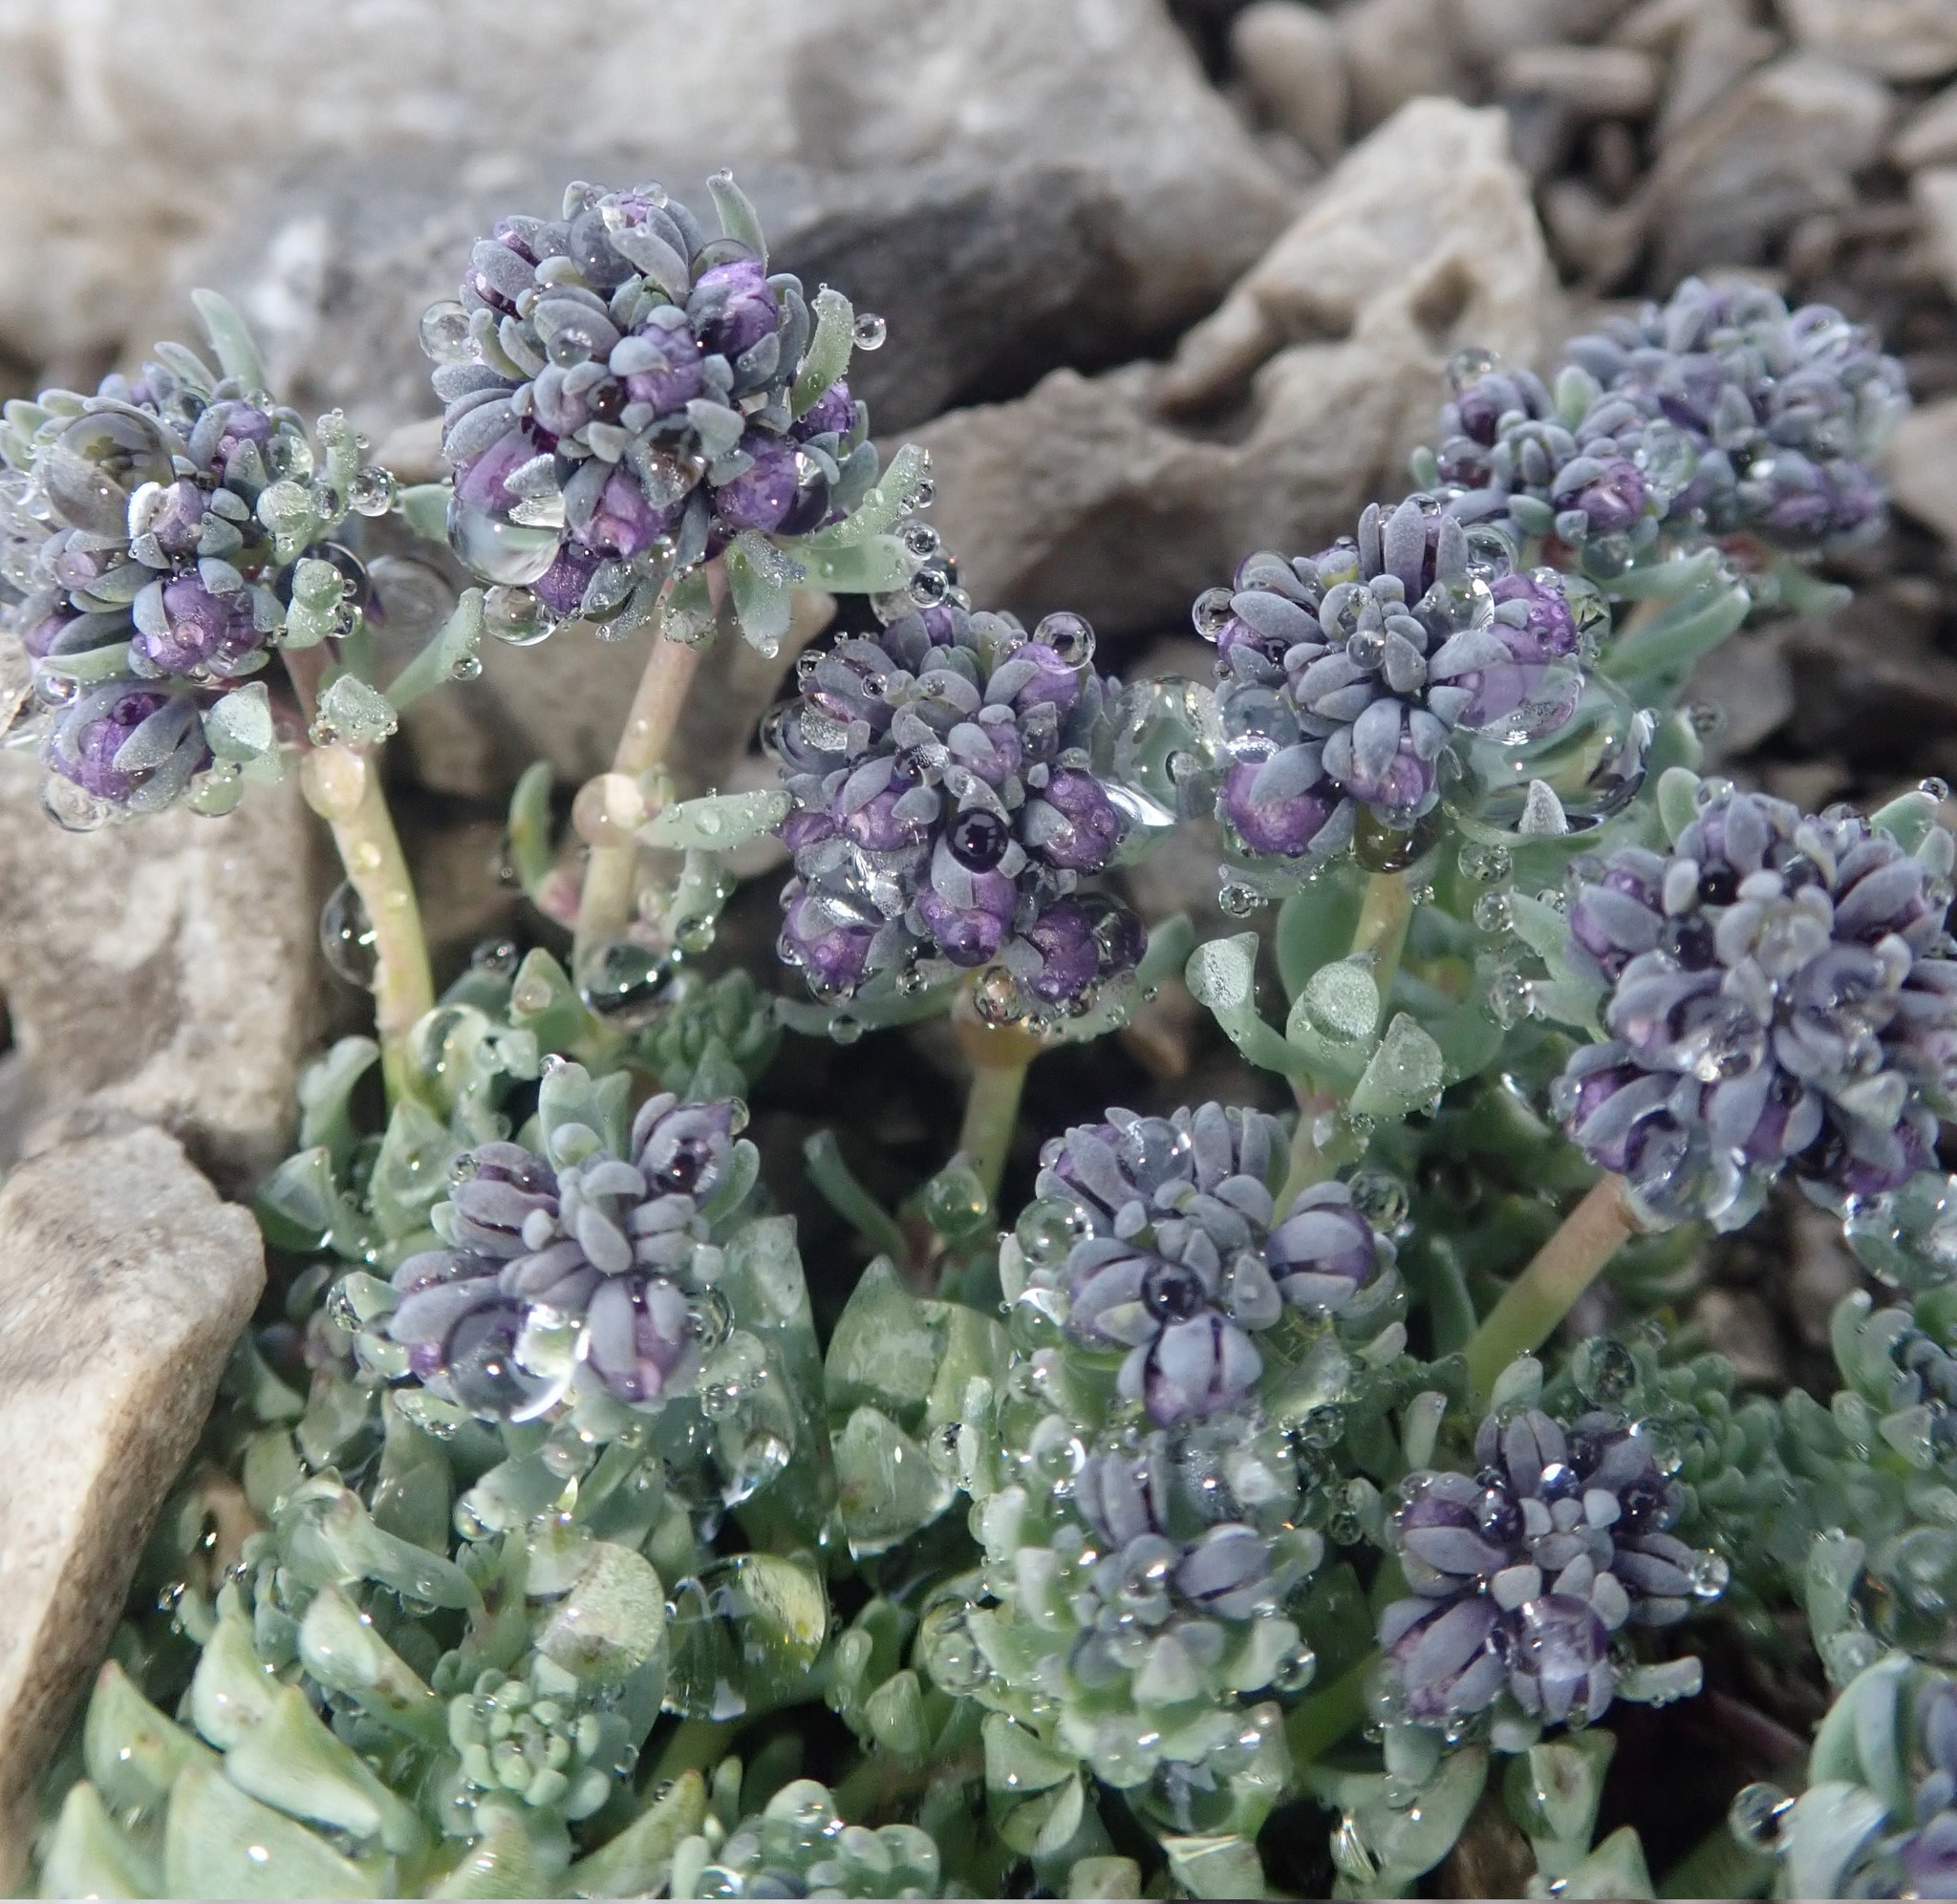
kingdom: Plantae
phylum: Tracheophyta
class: Magnoliopsida
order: Lamiales
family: Plantaginaceae
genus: Linaria
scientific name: Linaria alpina
